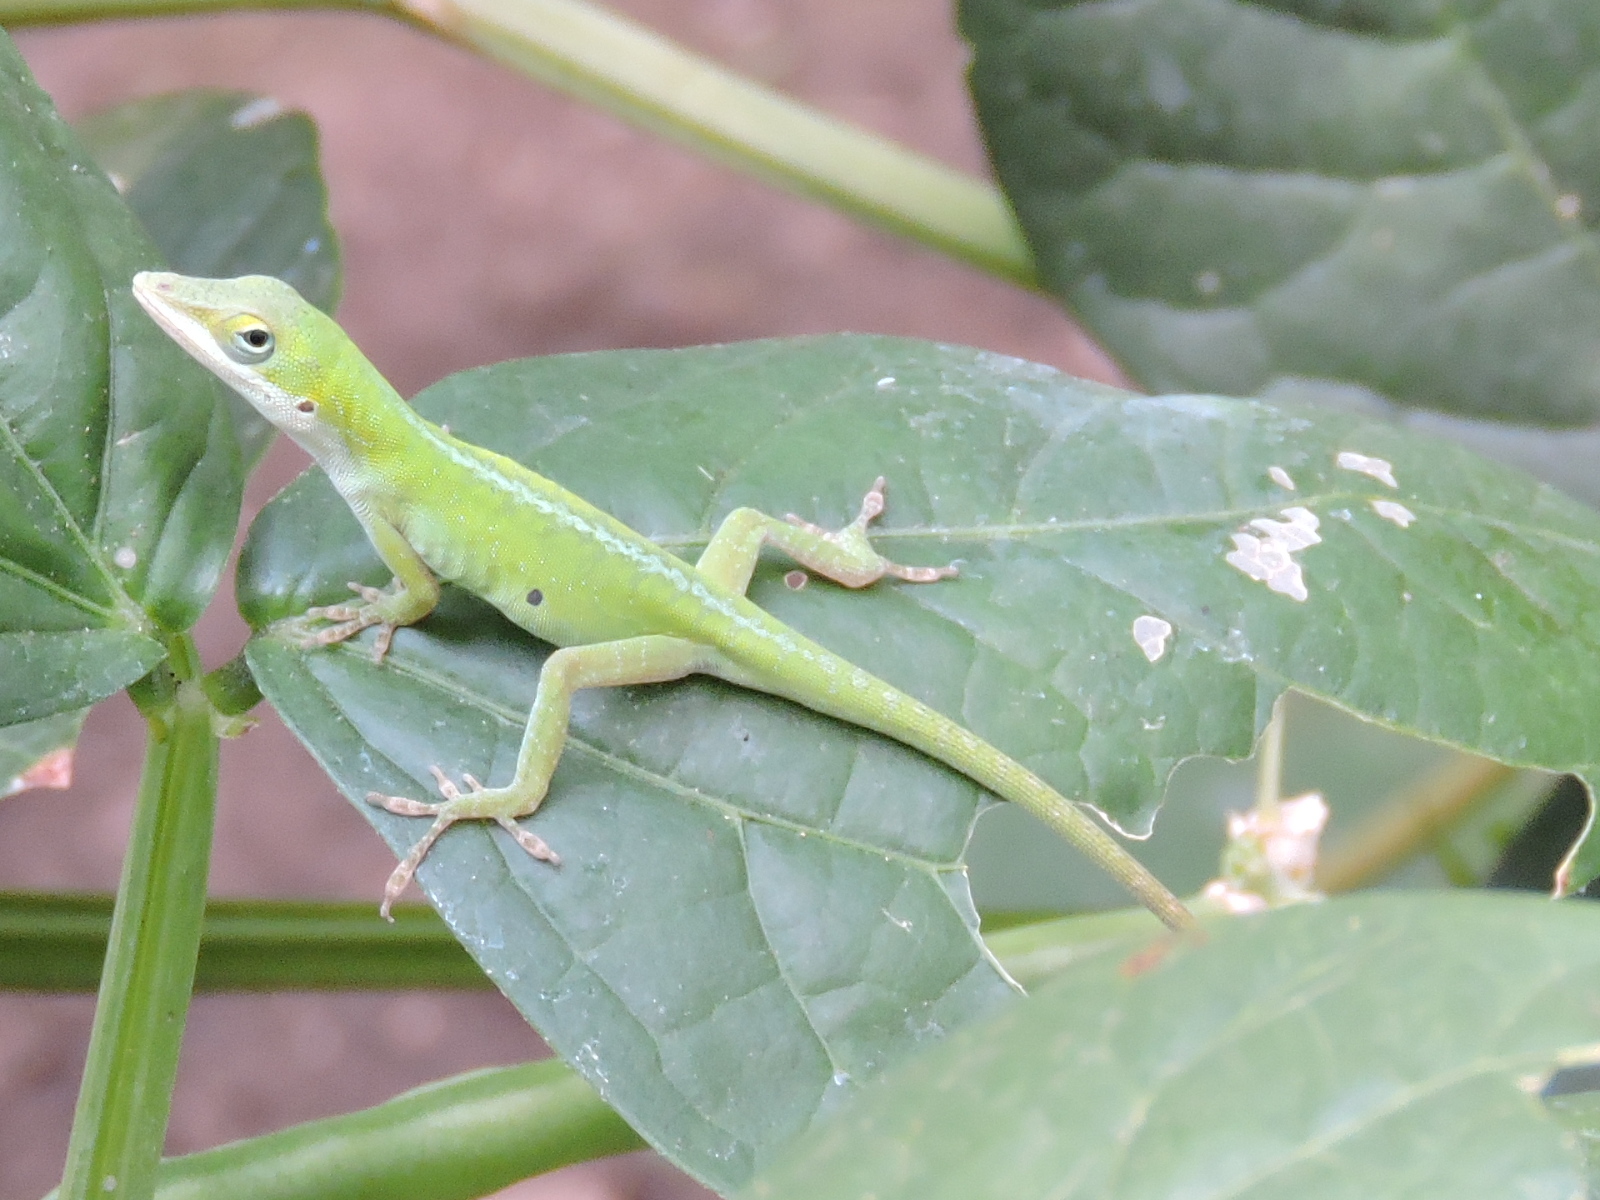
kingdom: Animalia
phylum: Chordata
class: Squamata
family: Dactyloidae
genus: Anolis
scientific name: Anolis carolinensis
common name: Green anole
